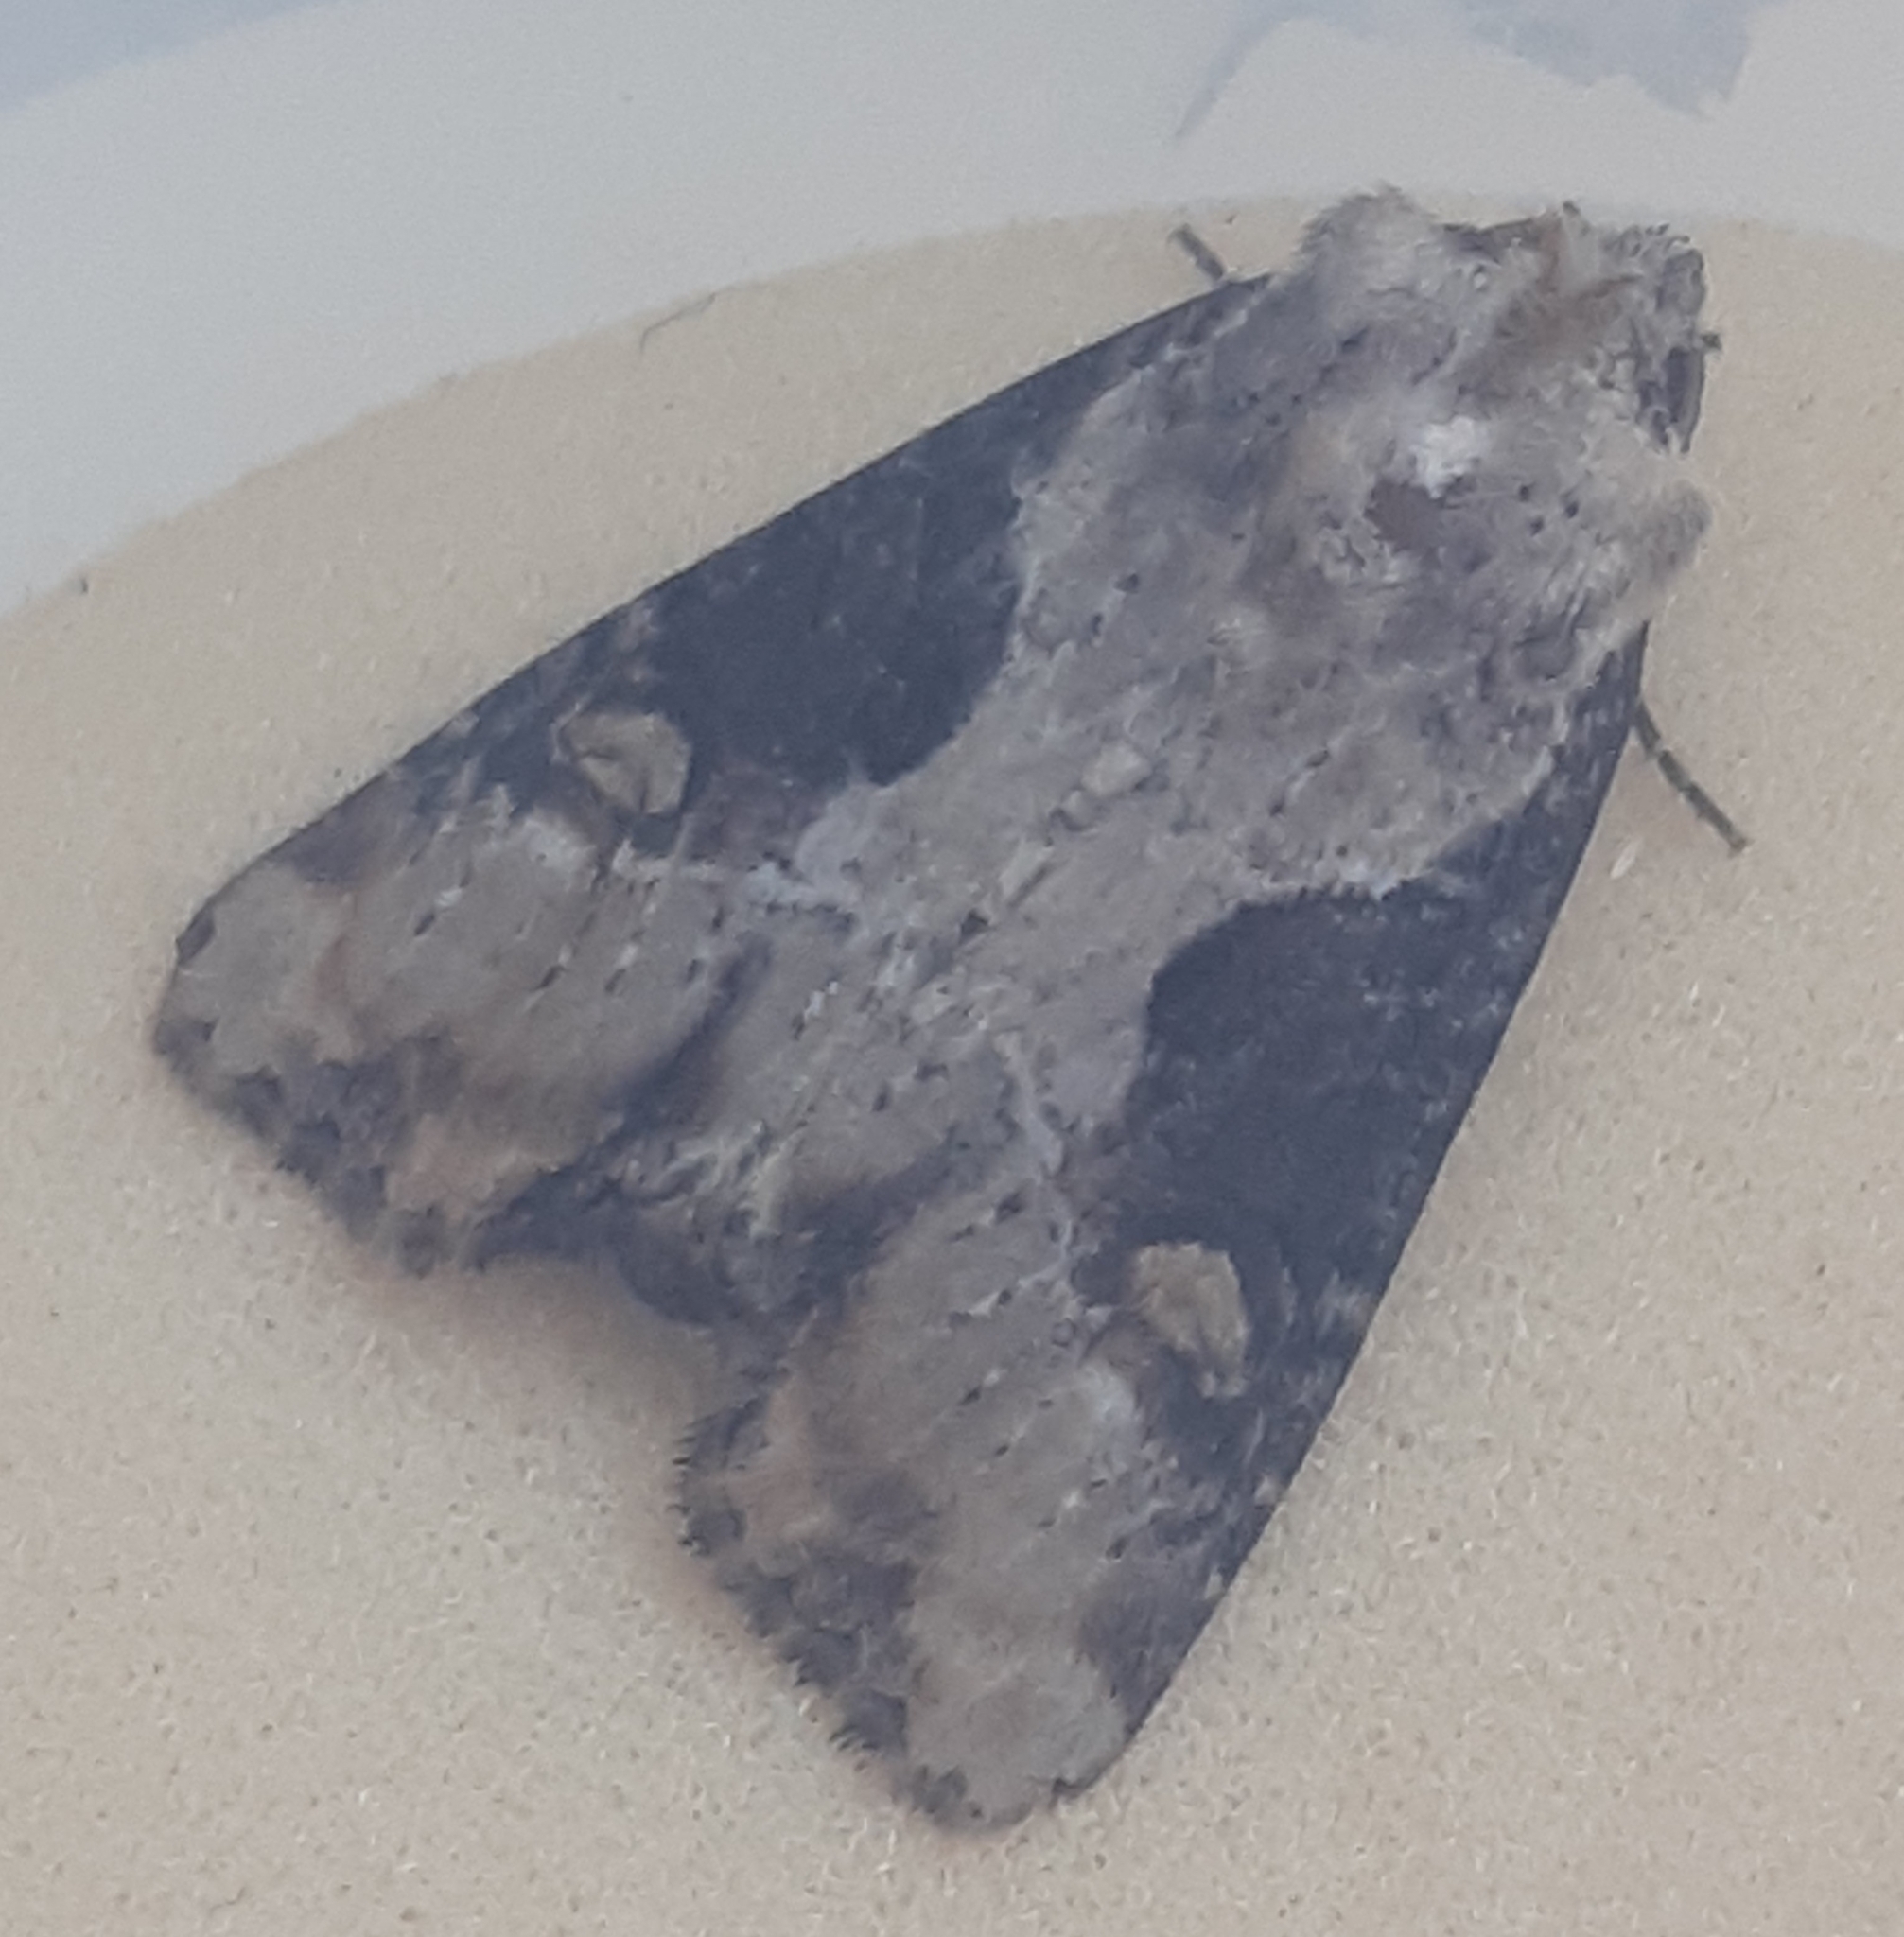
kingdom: Animalia
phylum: Arthropoda
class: Insecta
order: Lepidoptera
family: Noctuidae
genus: Lateroligia
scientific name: Lateroligia ophiogramma
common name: Double lobed
